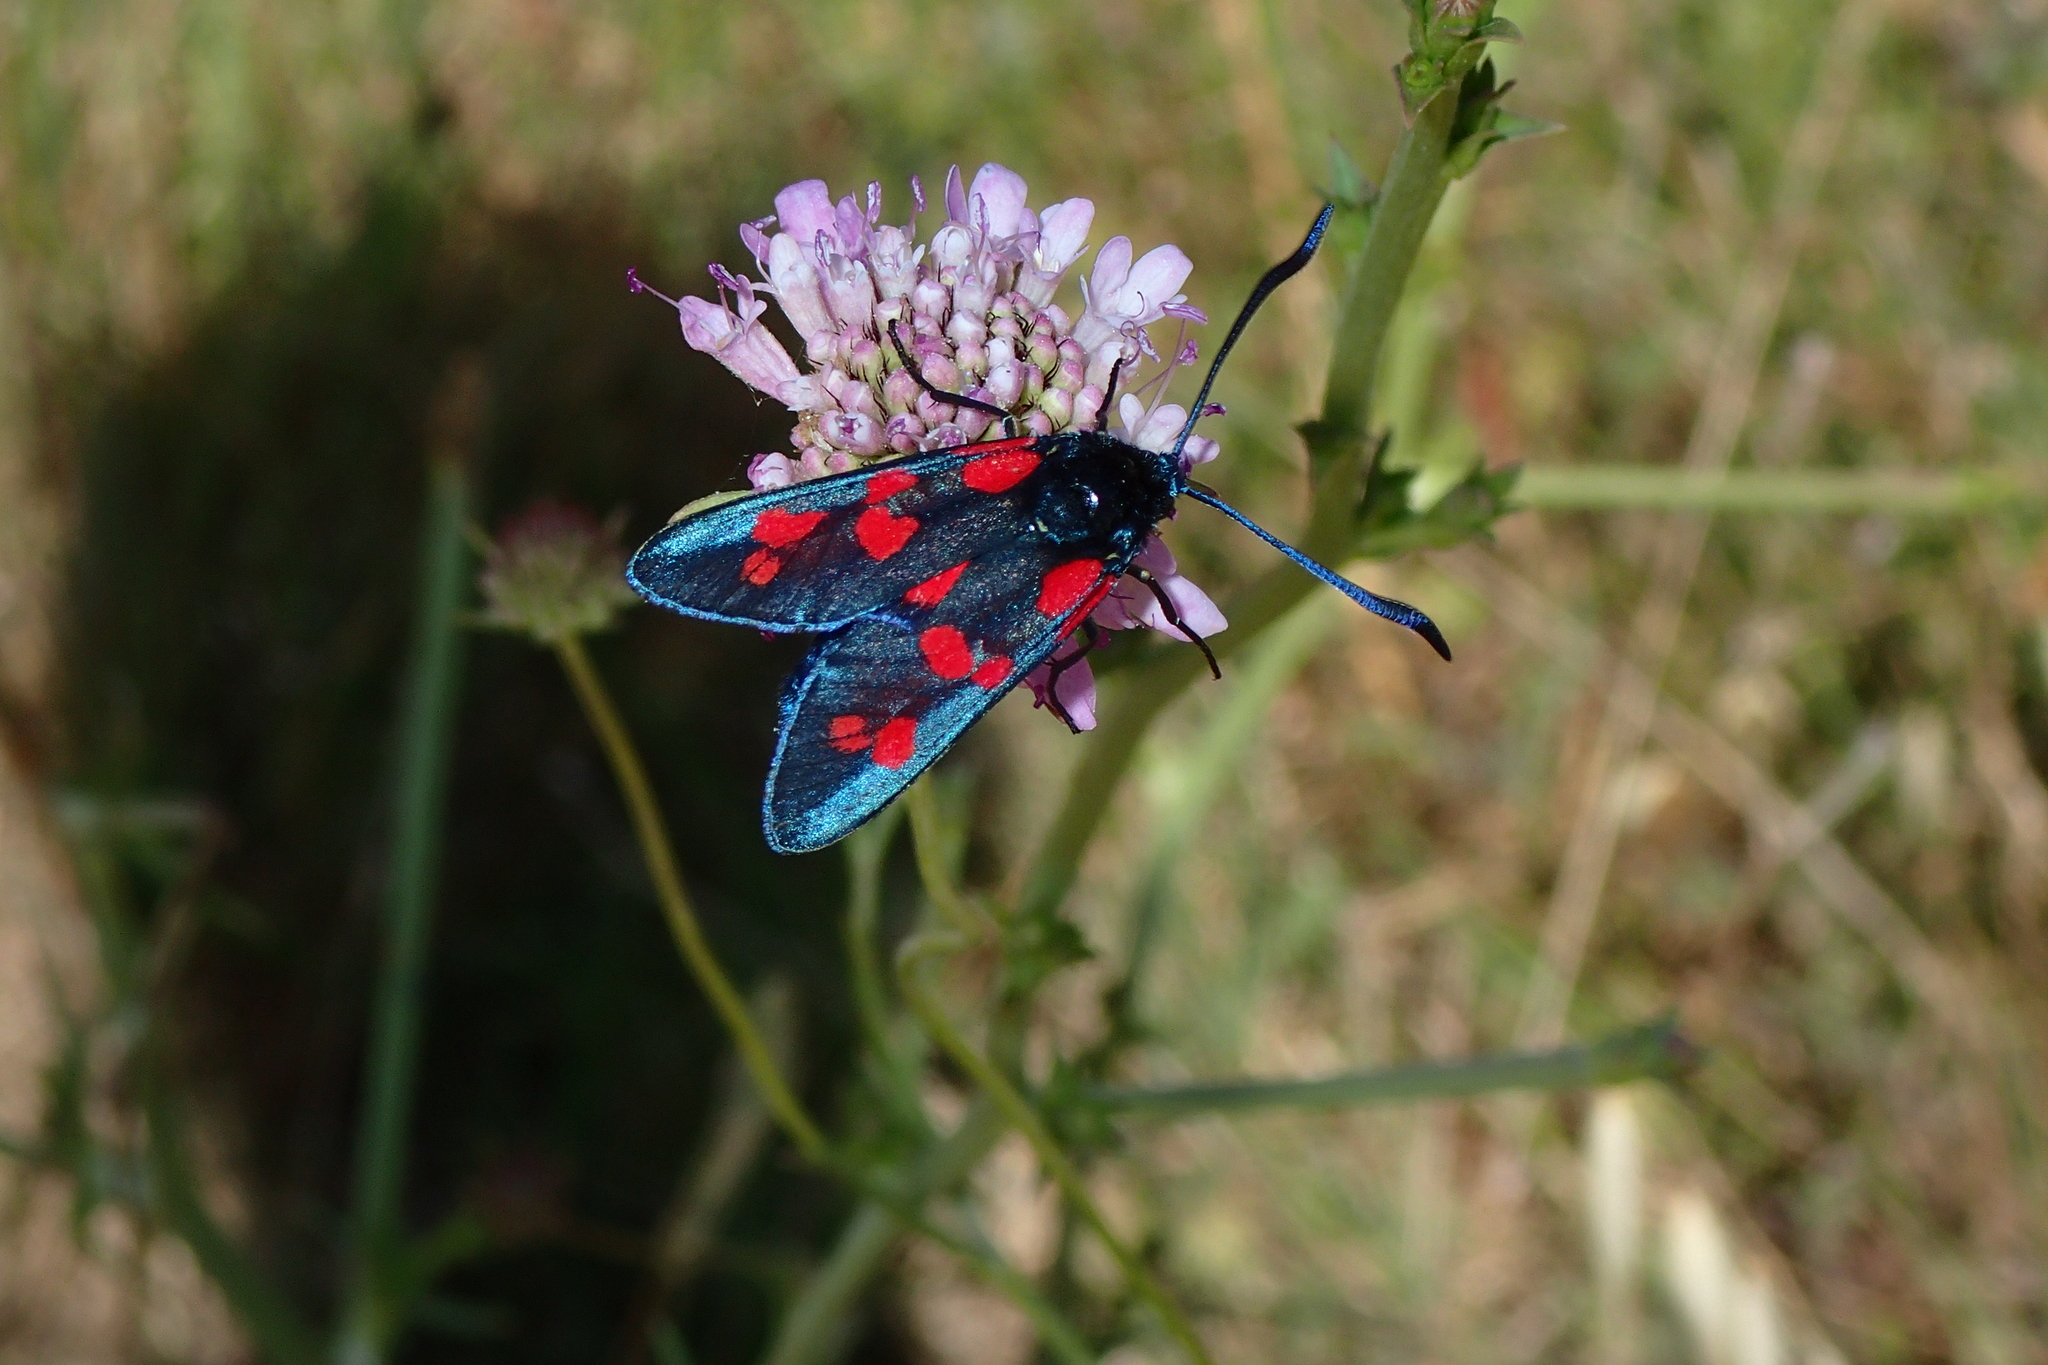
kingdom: Animalia
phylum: Arthropoda
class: Insecta
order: Lepidoptera
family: Zygaenidae
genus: Zygaena
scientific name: Zygaena filipendulae
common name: Six-spot burnet
